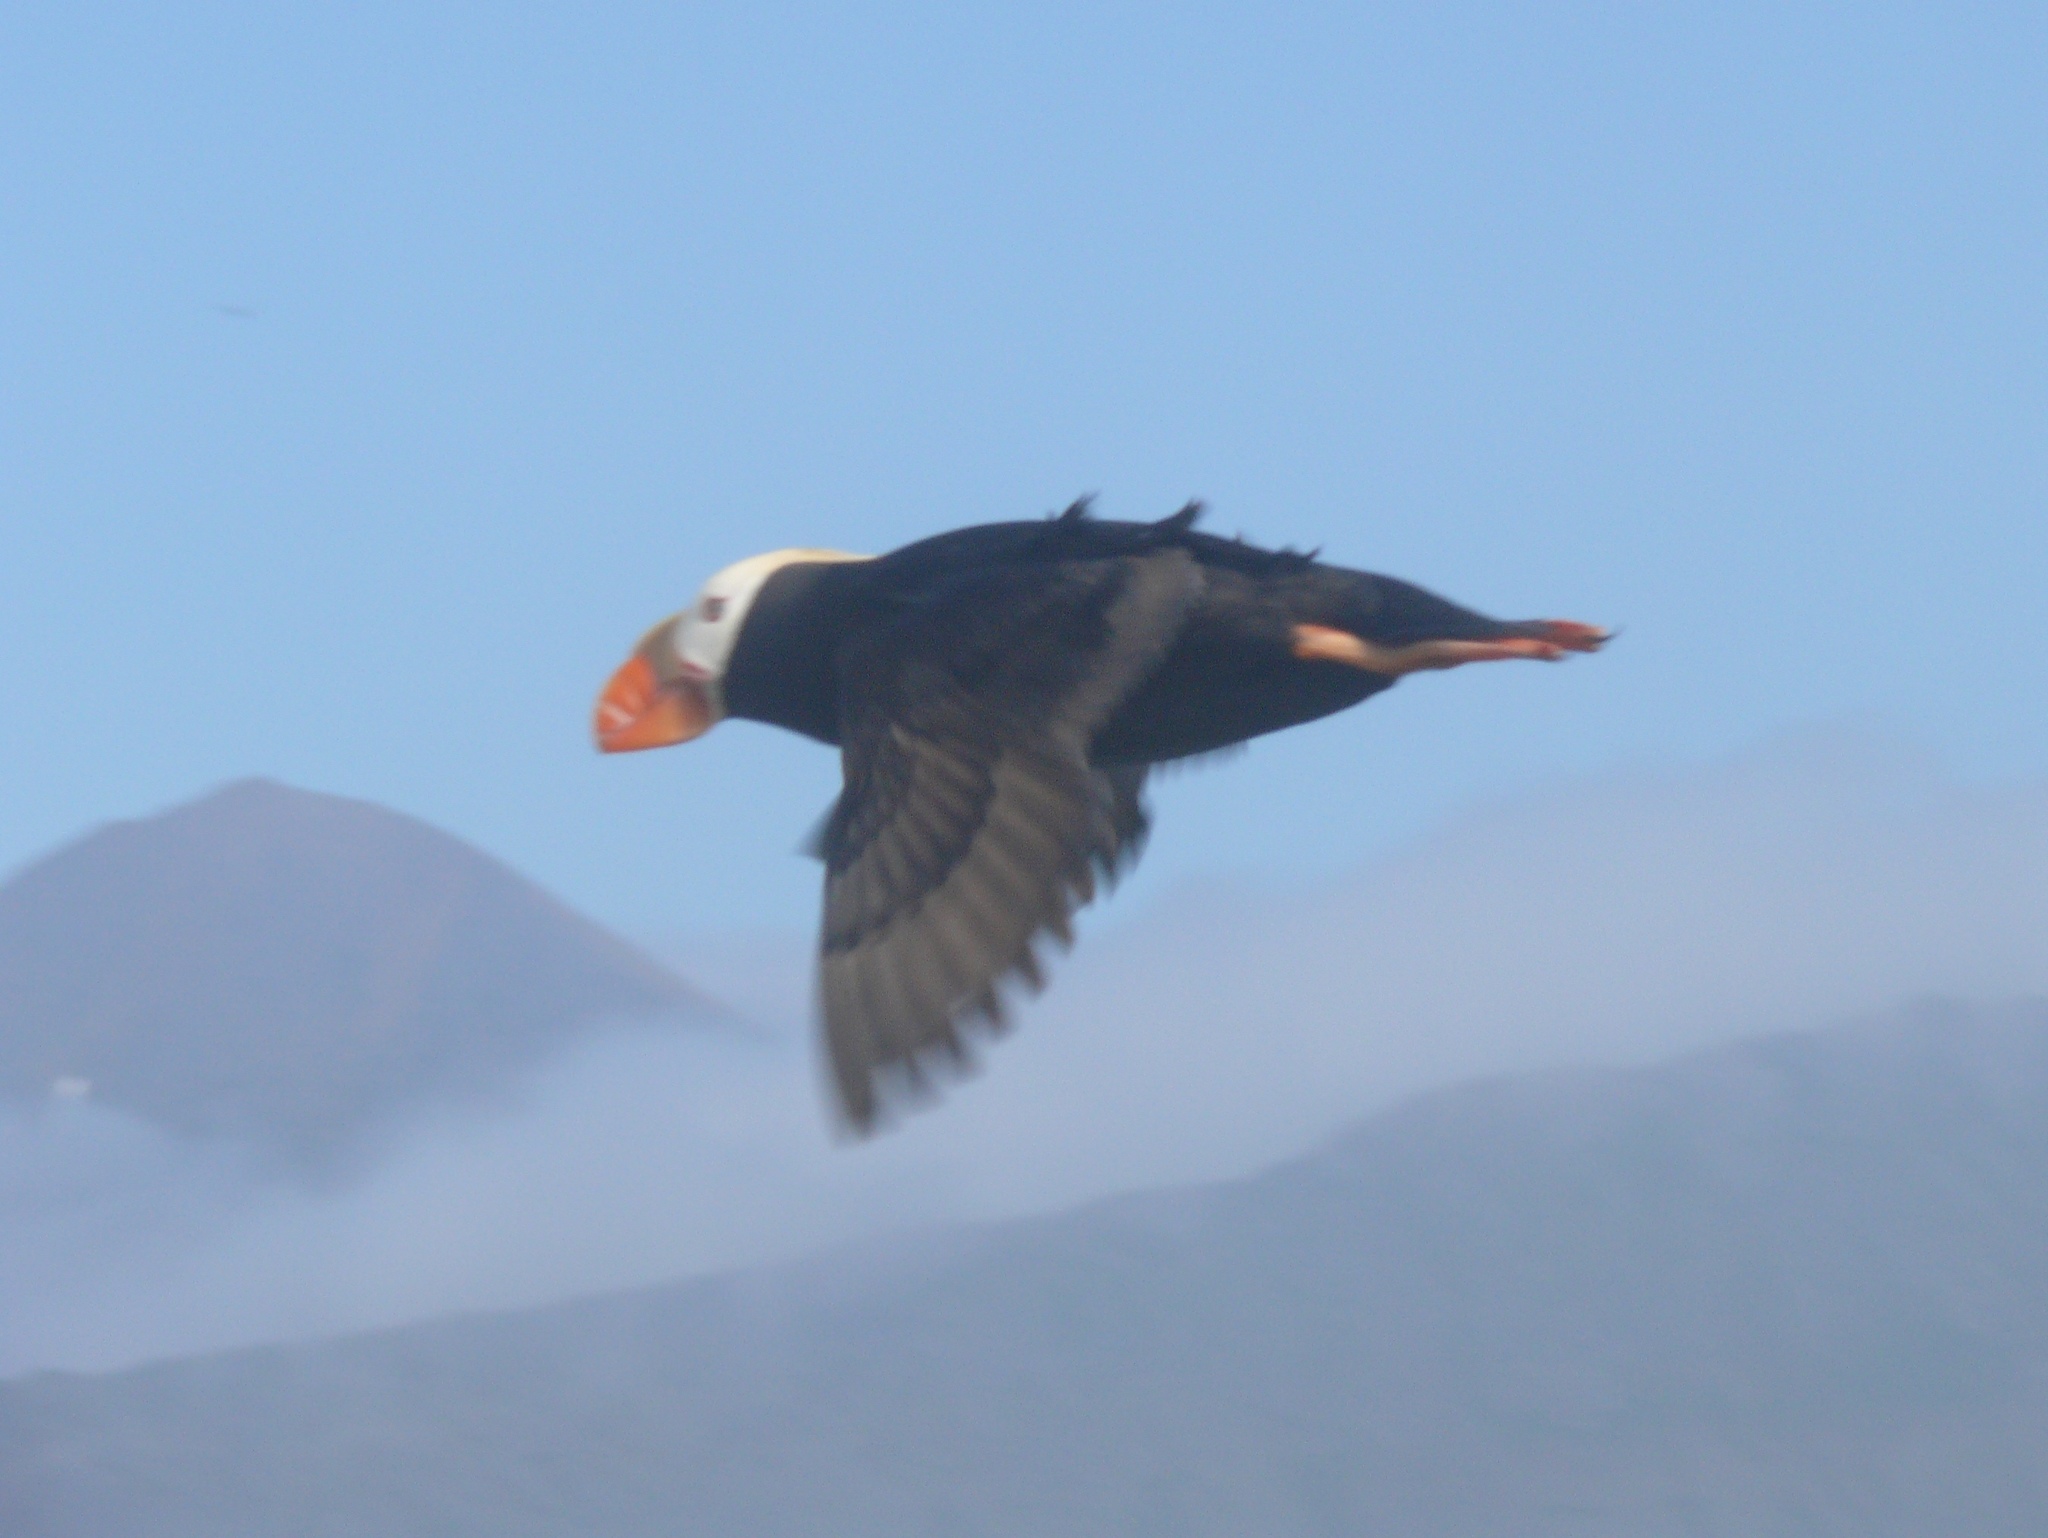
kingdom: Animalia
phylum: Chordata
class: Aves
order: Charadriiformes
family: Alcidae
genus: Fratercula
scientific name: Fratercula cirrhata
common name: Tufted puffin
